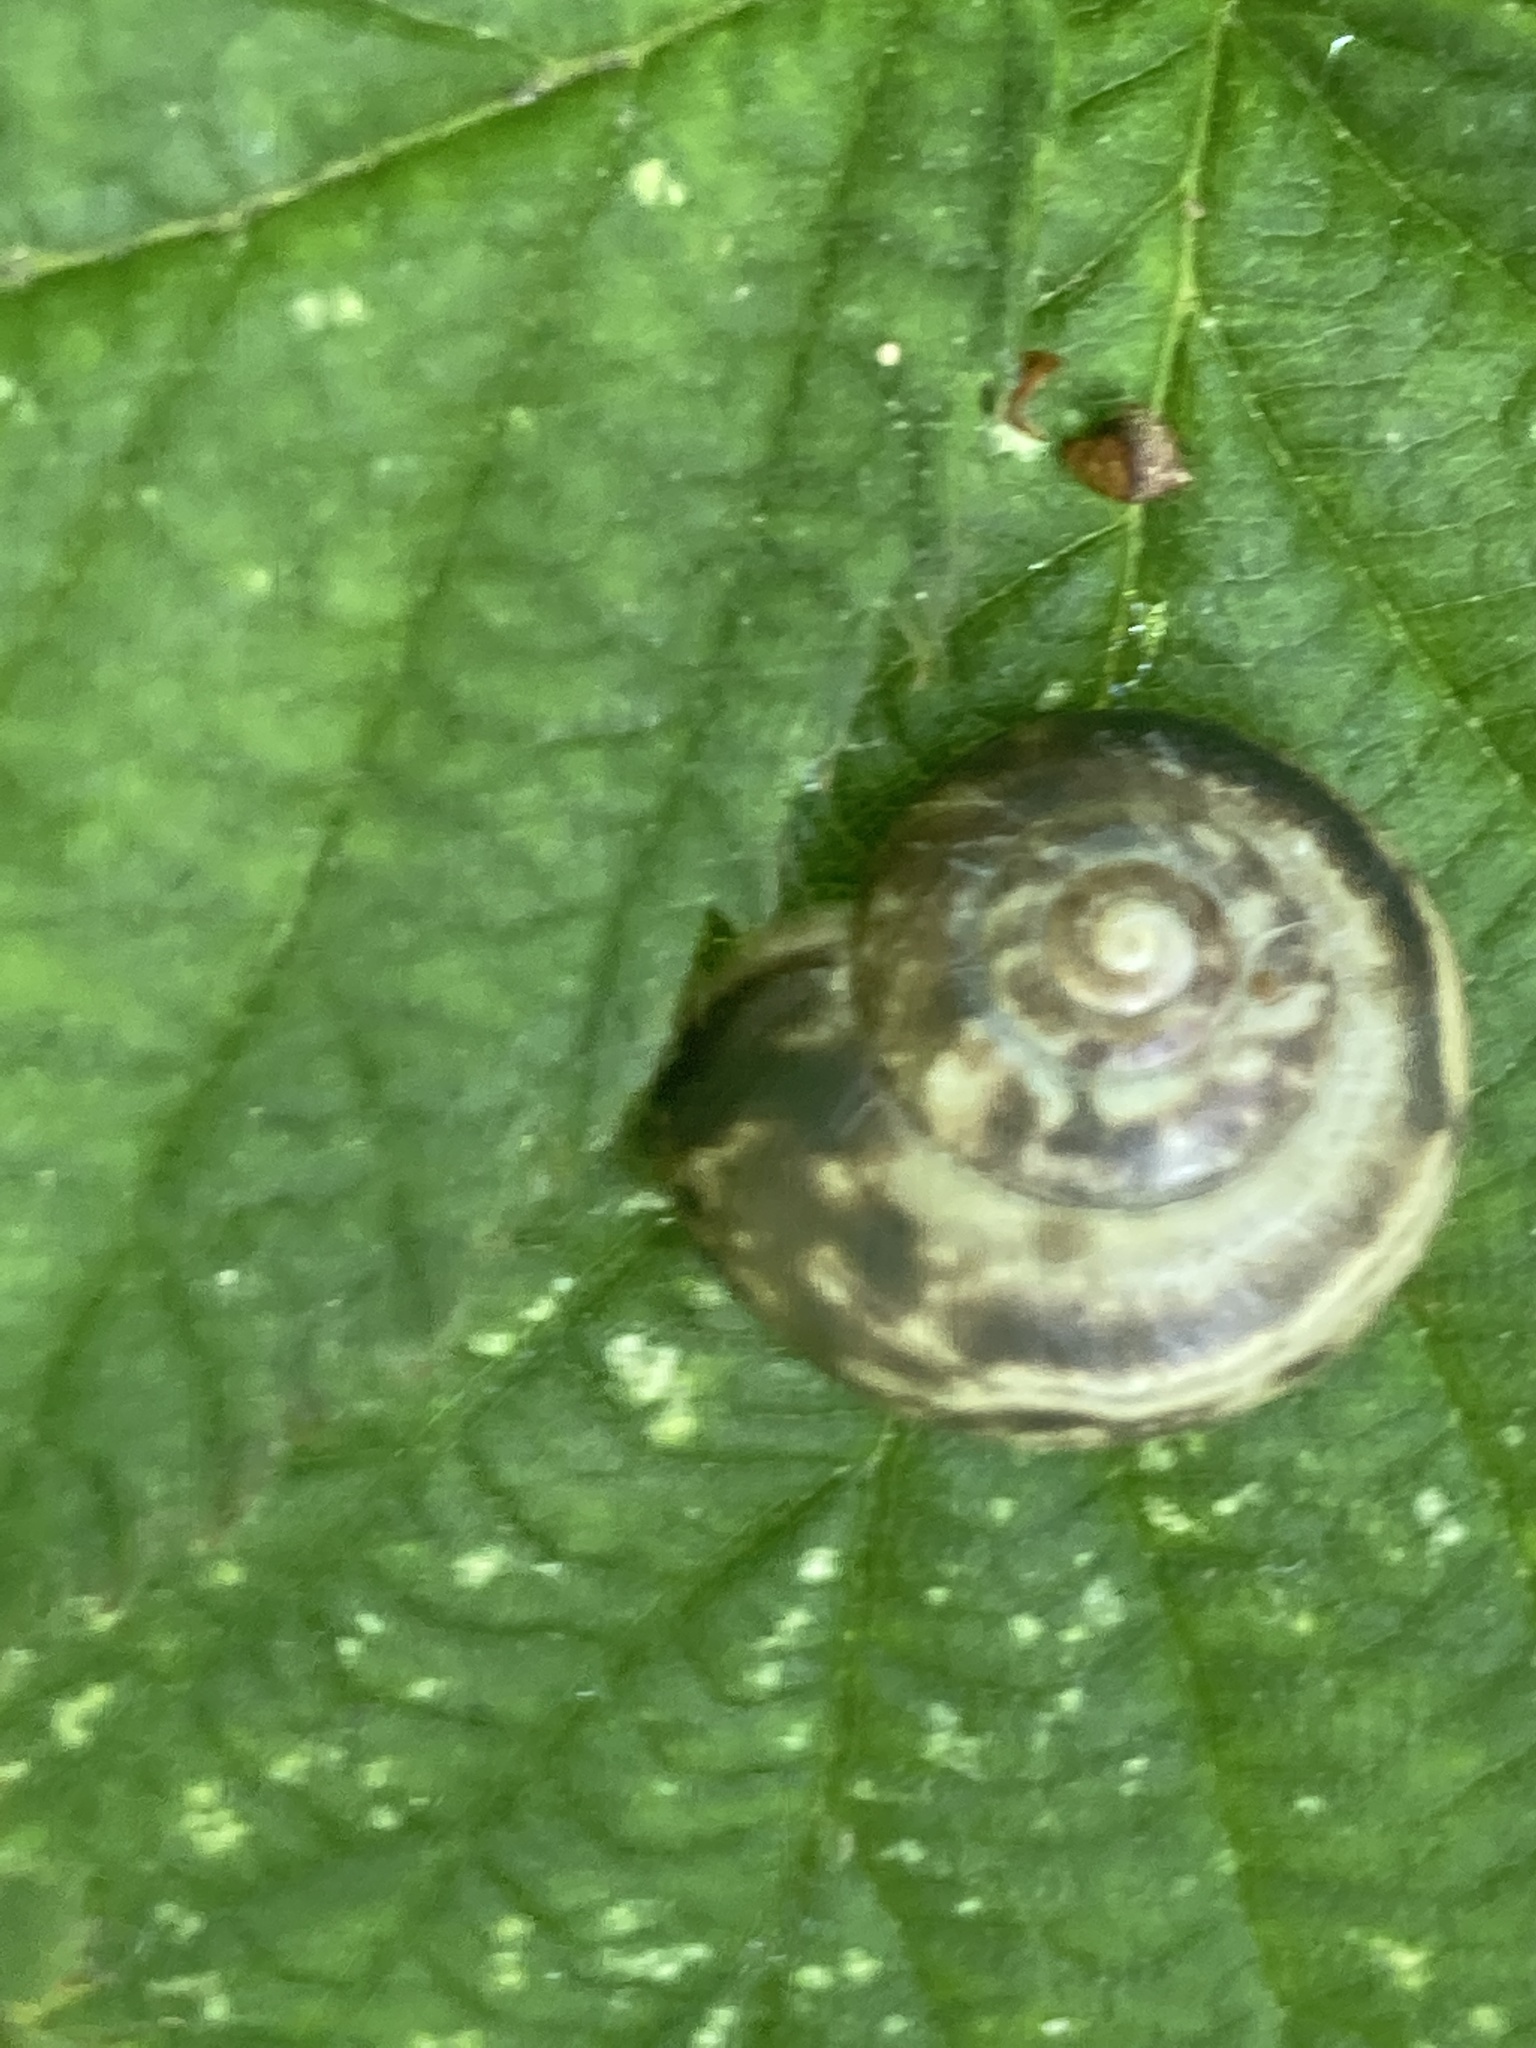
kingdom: Animalia
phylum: Mollusca
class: Gastropoda
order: Stylommatophora
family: Hygromiidae
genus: Monacha
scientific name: Monacha cantiana
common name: Kentish snail
